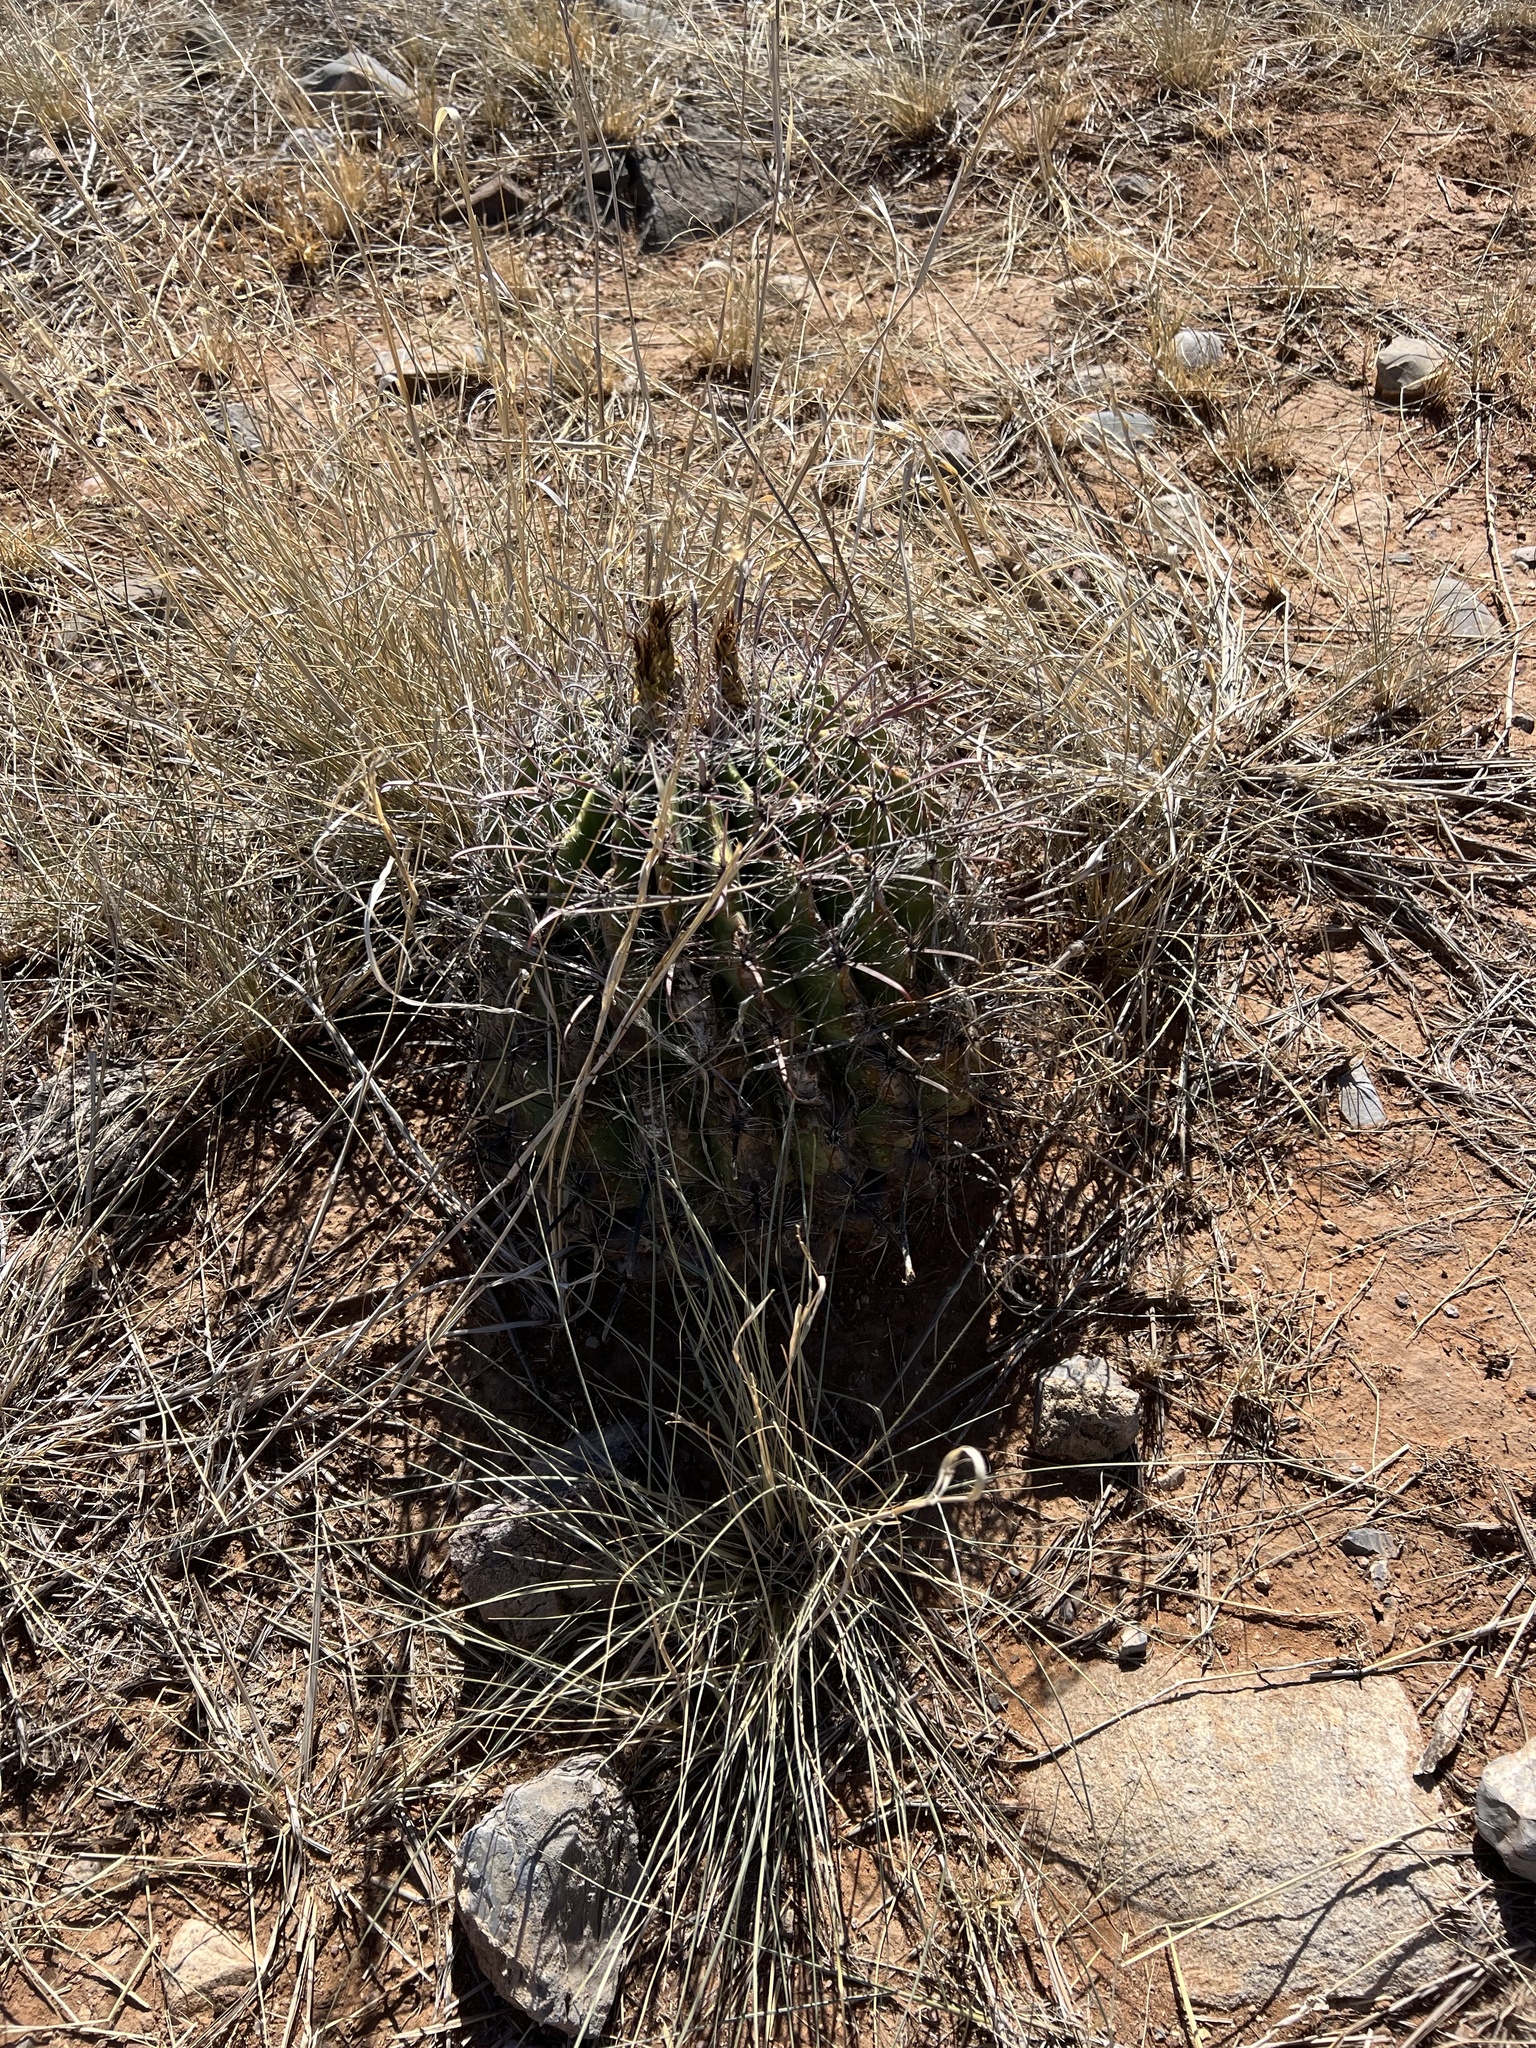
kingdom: Plantae
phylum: Tracheophyta
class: Magnoliopsida
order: Caryophyllales
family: Cactaceae
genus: Ferocactus
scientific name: Ferocactus wislizeni
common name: Candy barrel cactus
